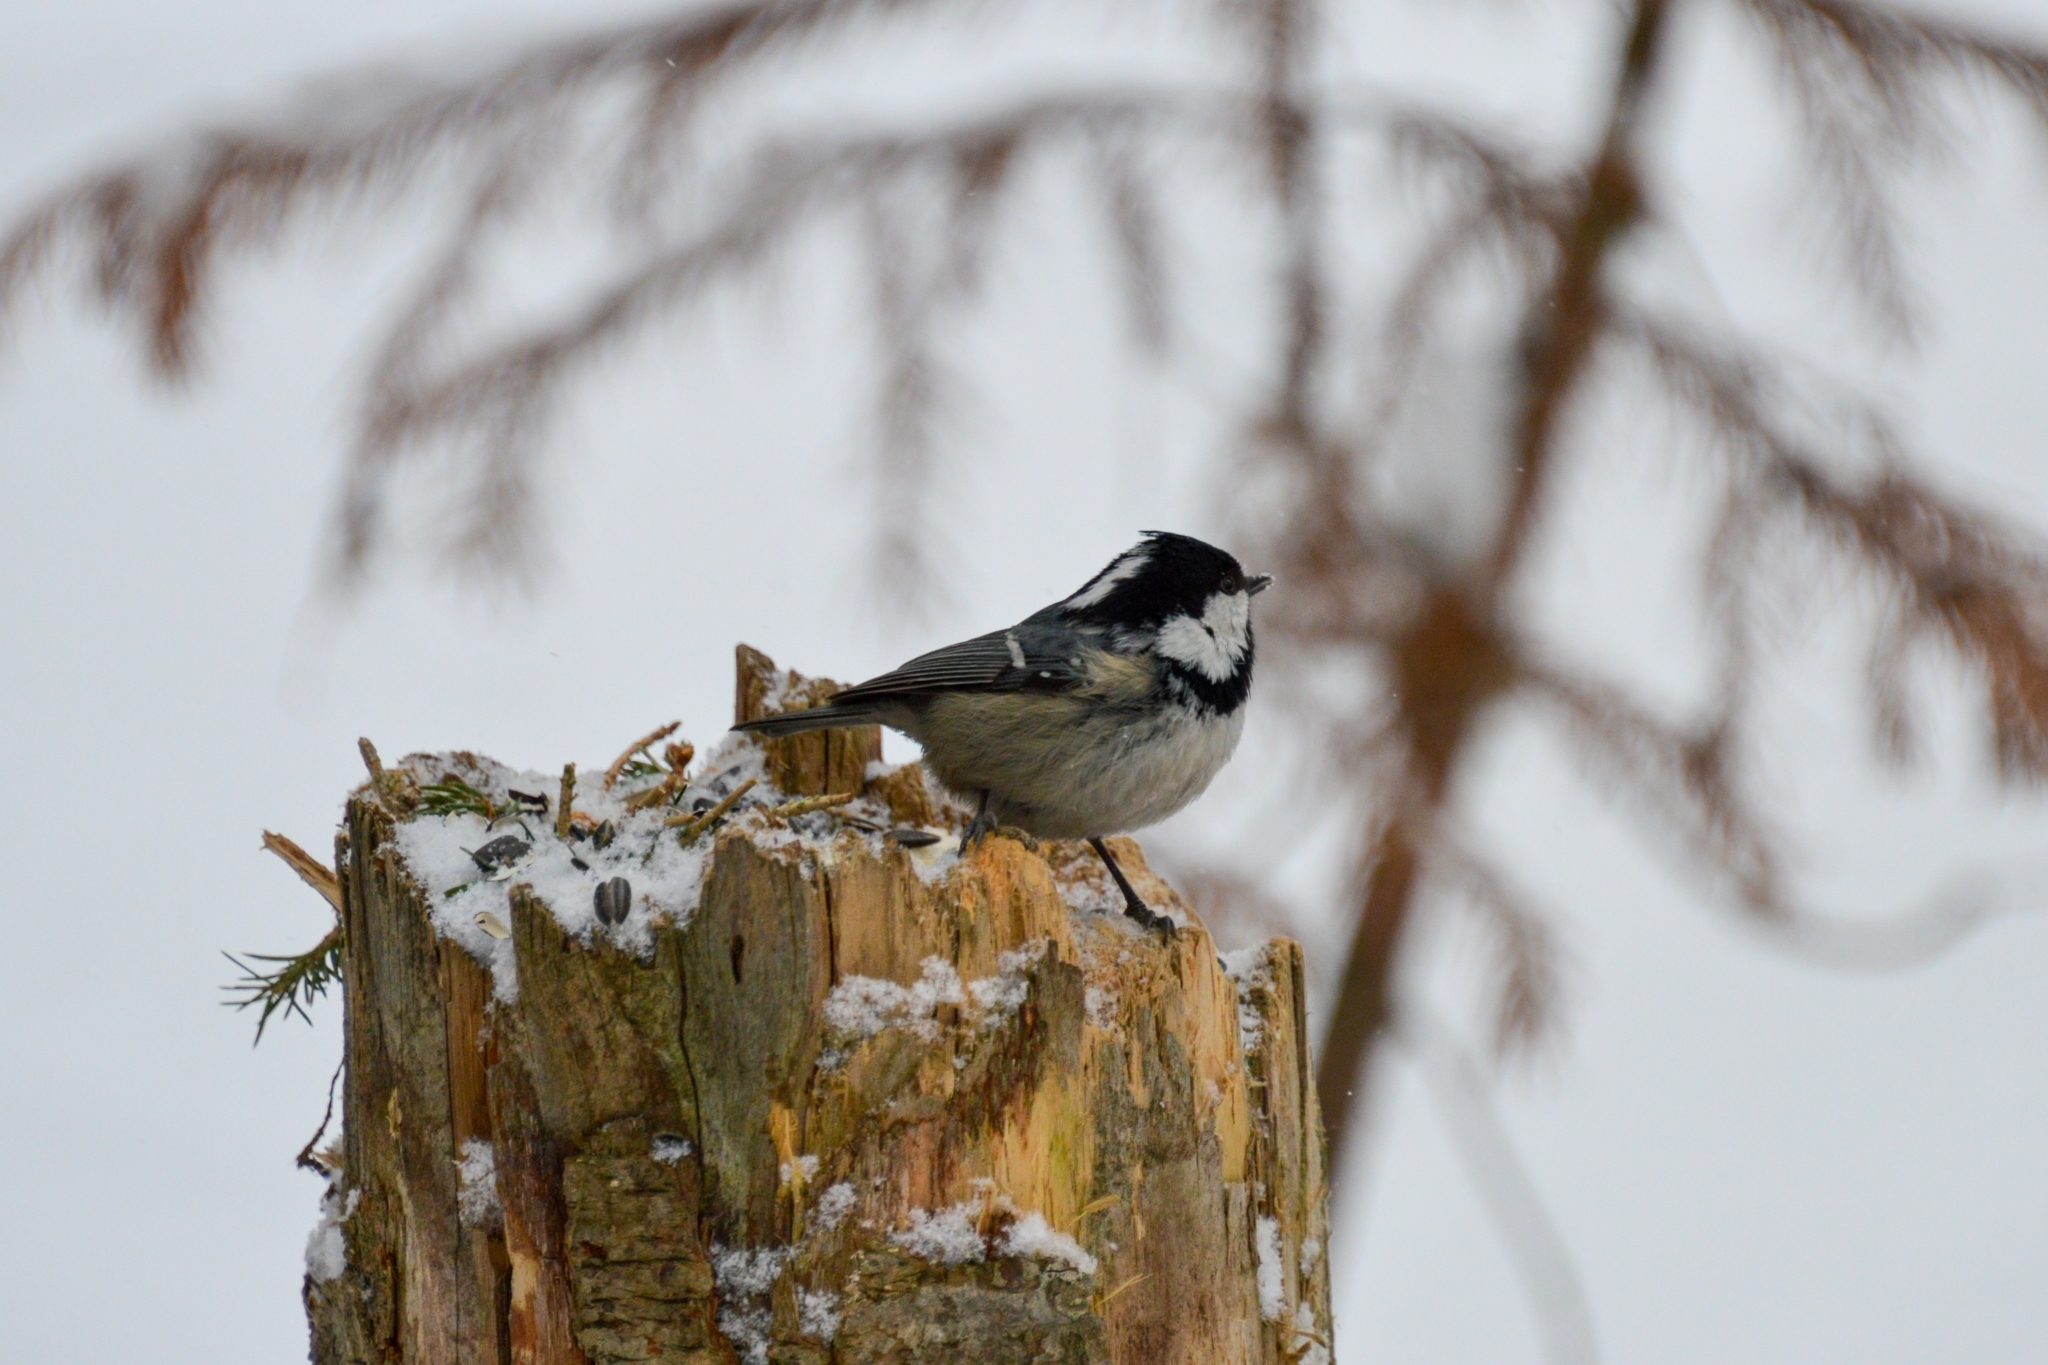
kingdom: Animalia
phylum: Chordata
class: Aves
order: Passeriformes
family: Paridae
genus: Periparus
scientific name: Periparus ater
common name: Coal tit
